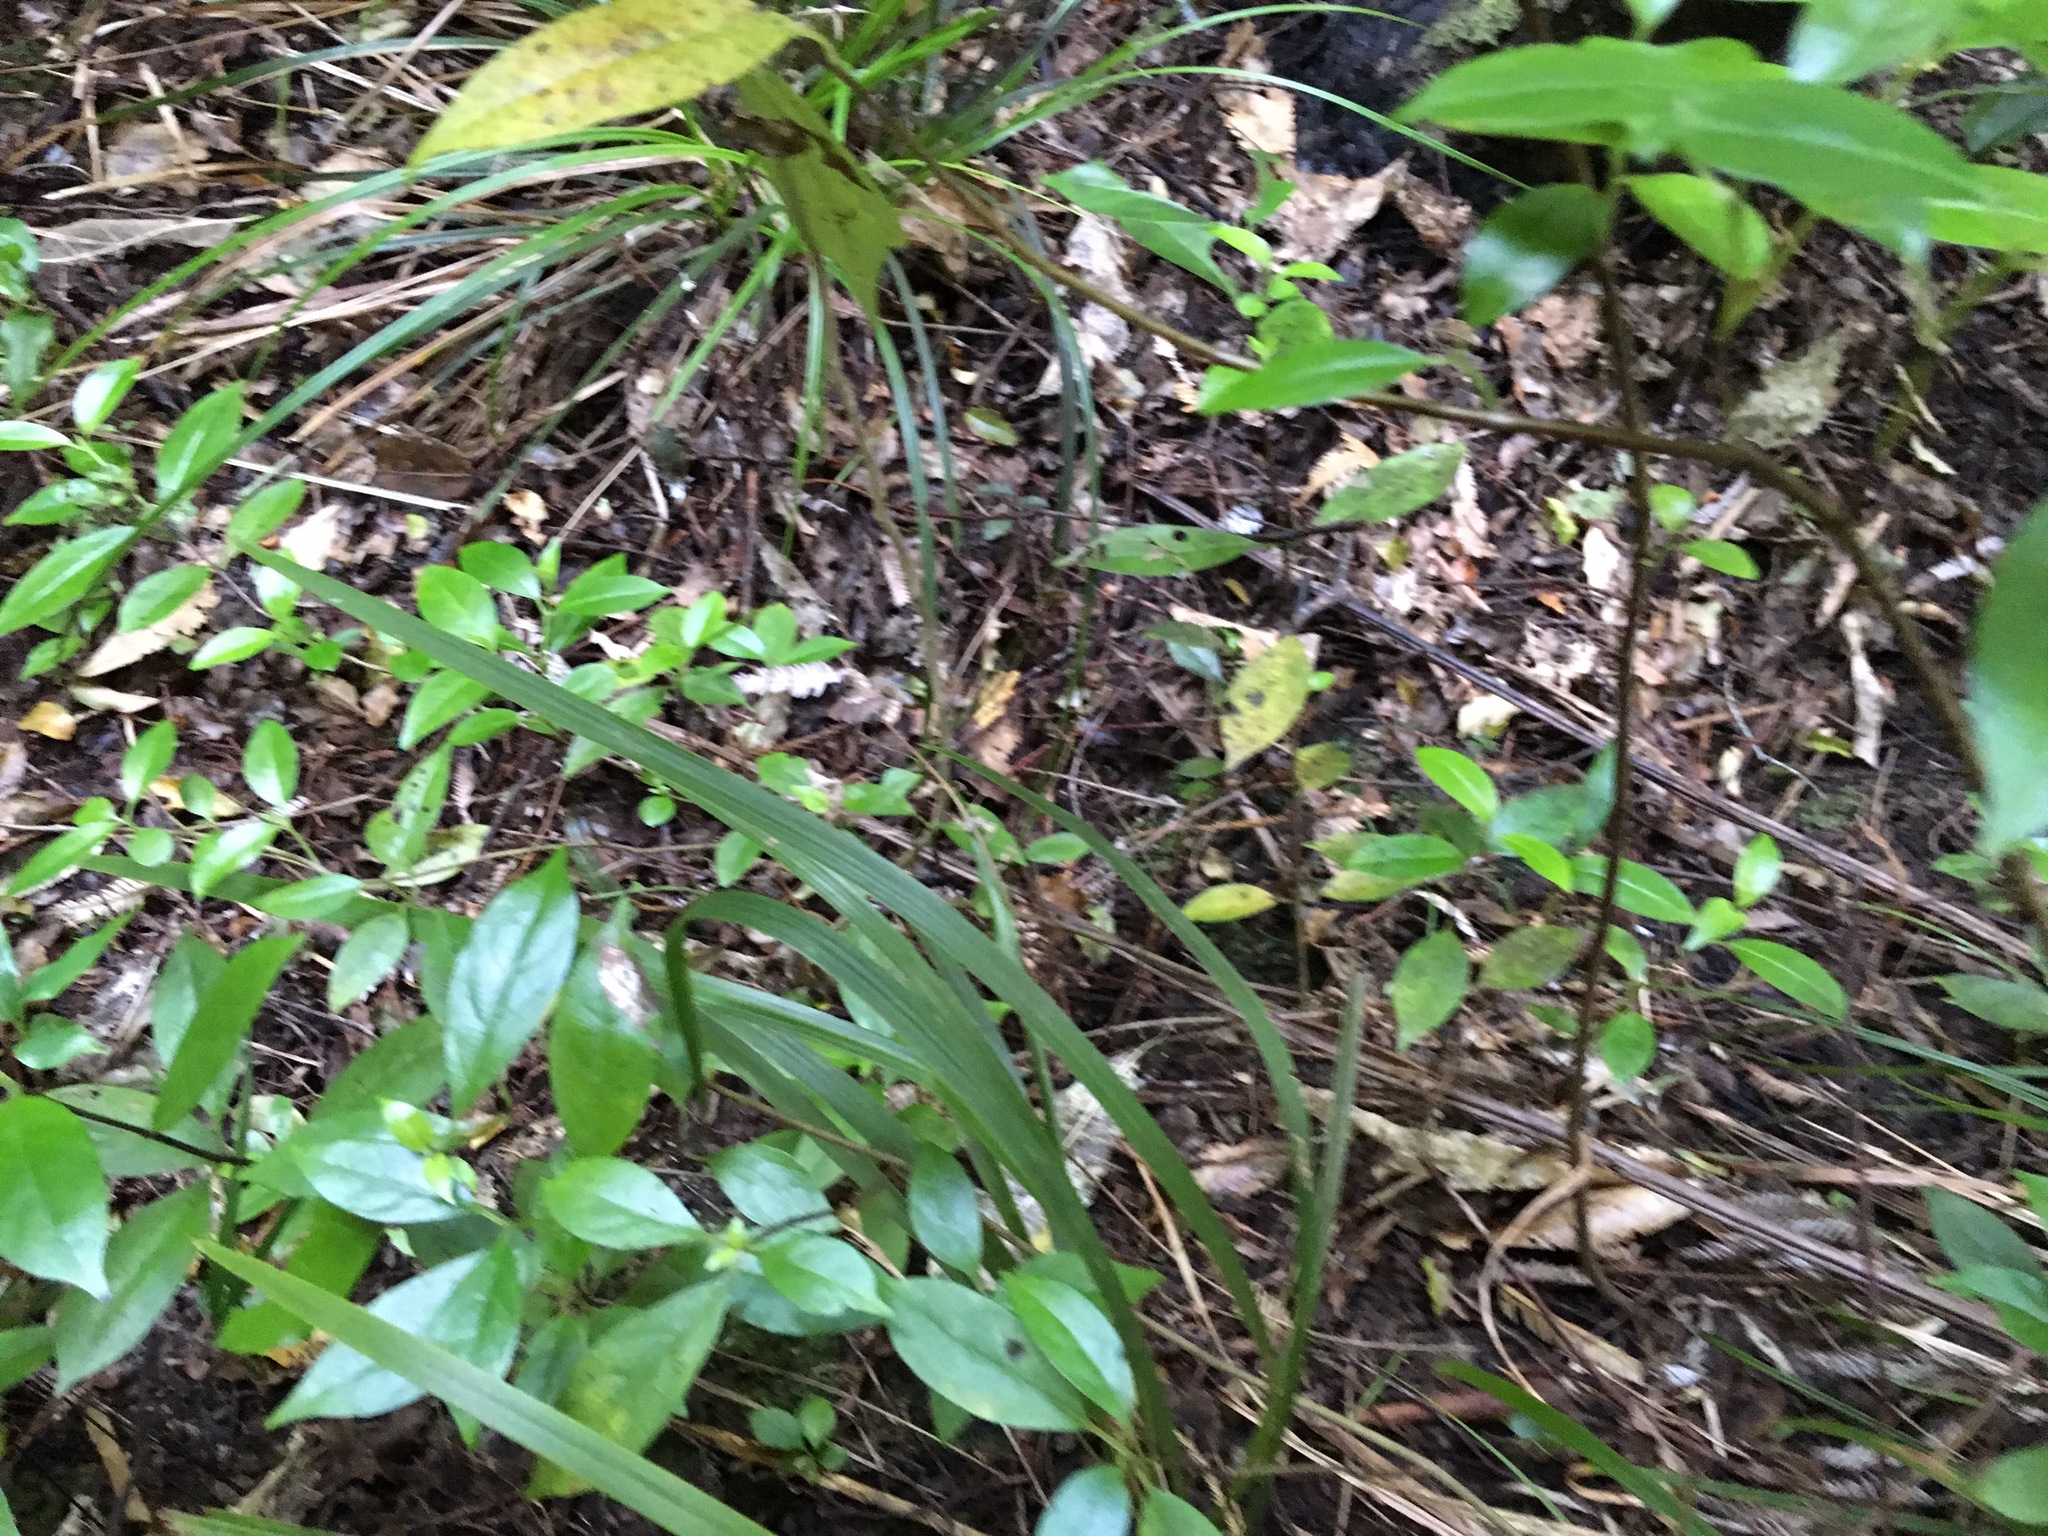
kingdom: Plantae
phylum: Tracheophyta
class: Magnoliopsida
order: Gentianales
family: Loganiaceae
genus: Geniostoma
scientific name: Geniostoma ligustrifolium
